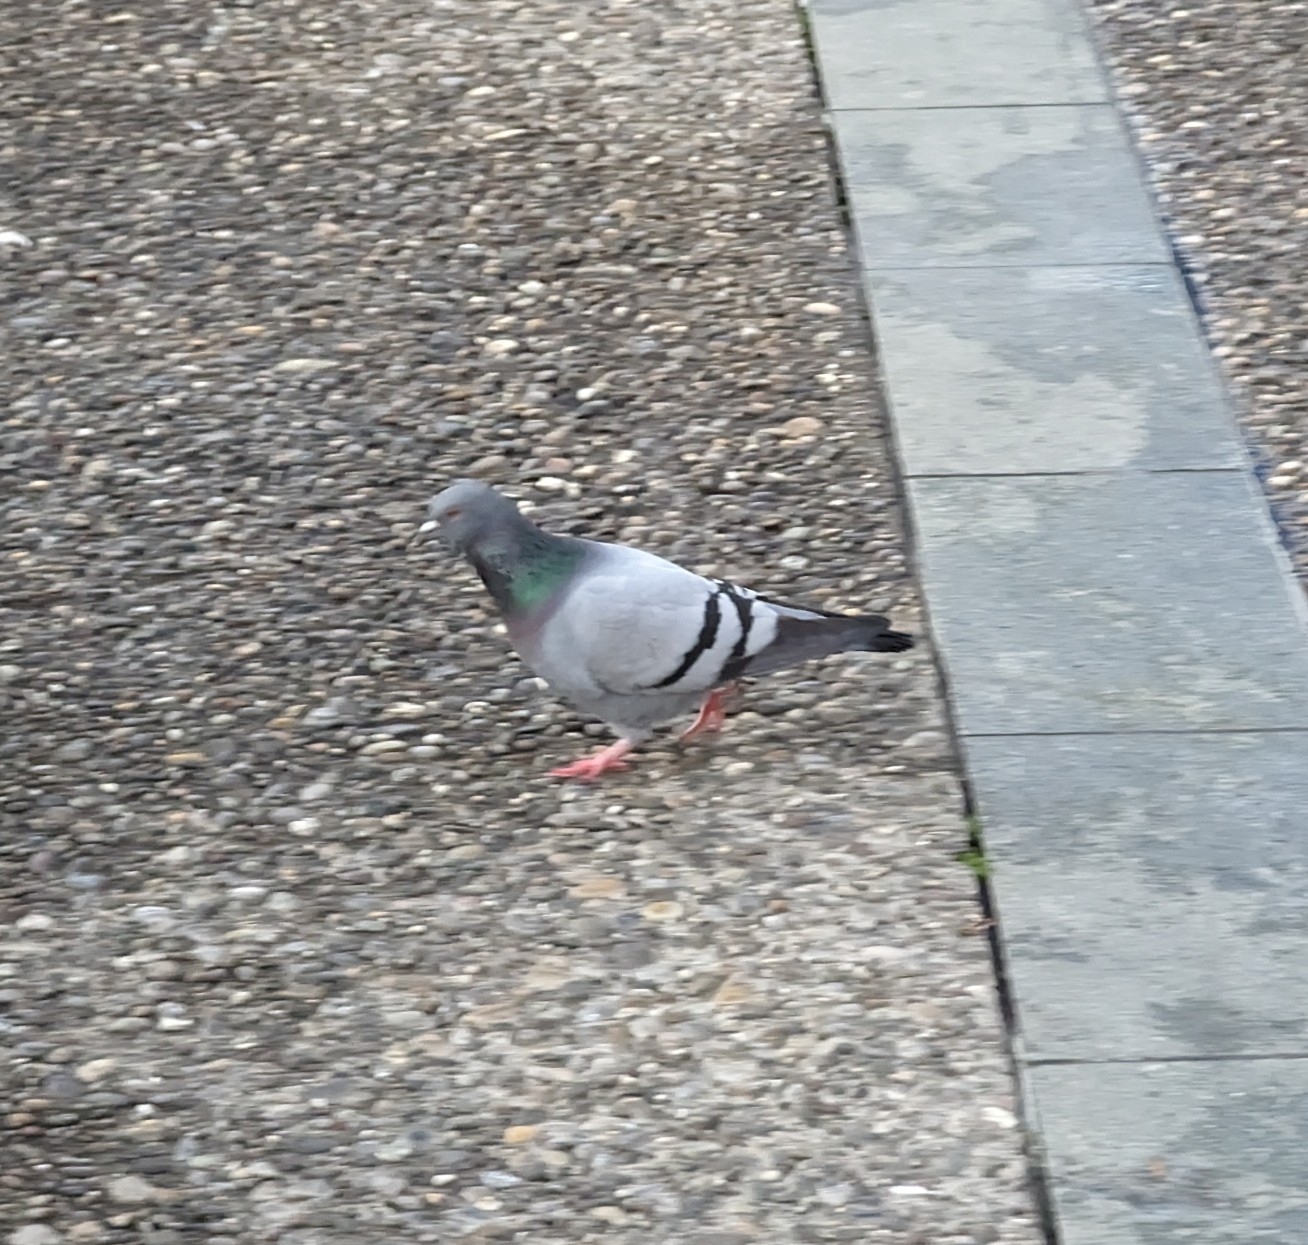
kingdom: Animalia
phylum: Chordata
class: Aves
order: Columbiformes
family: Columbidae
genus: Columba
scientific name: Columba livia
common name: Rock pigeon
